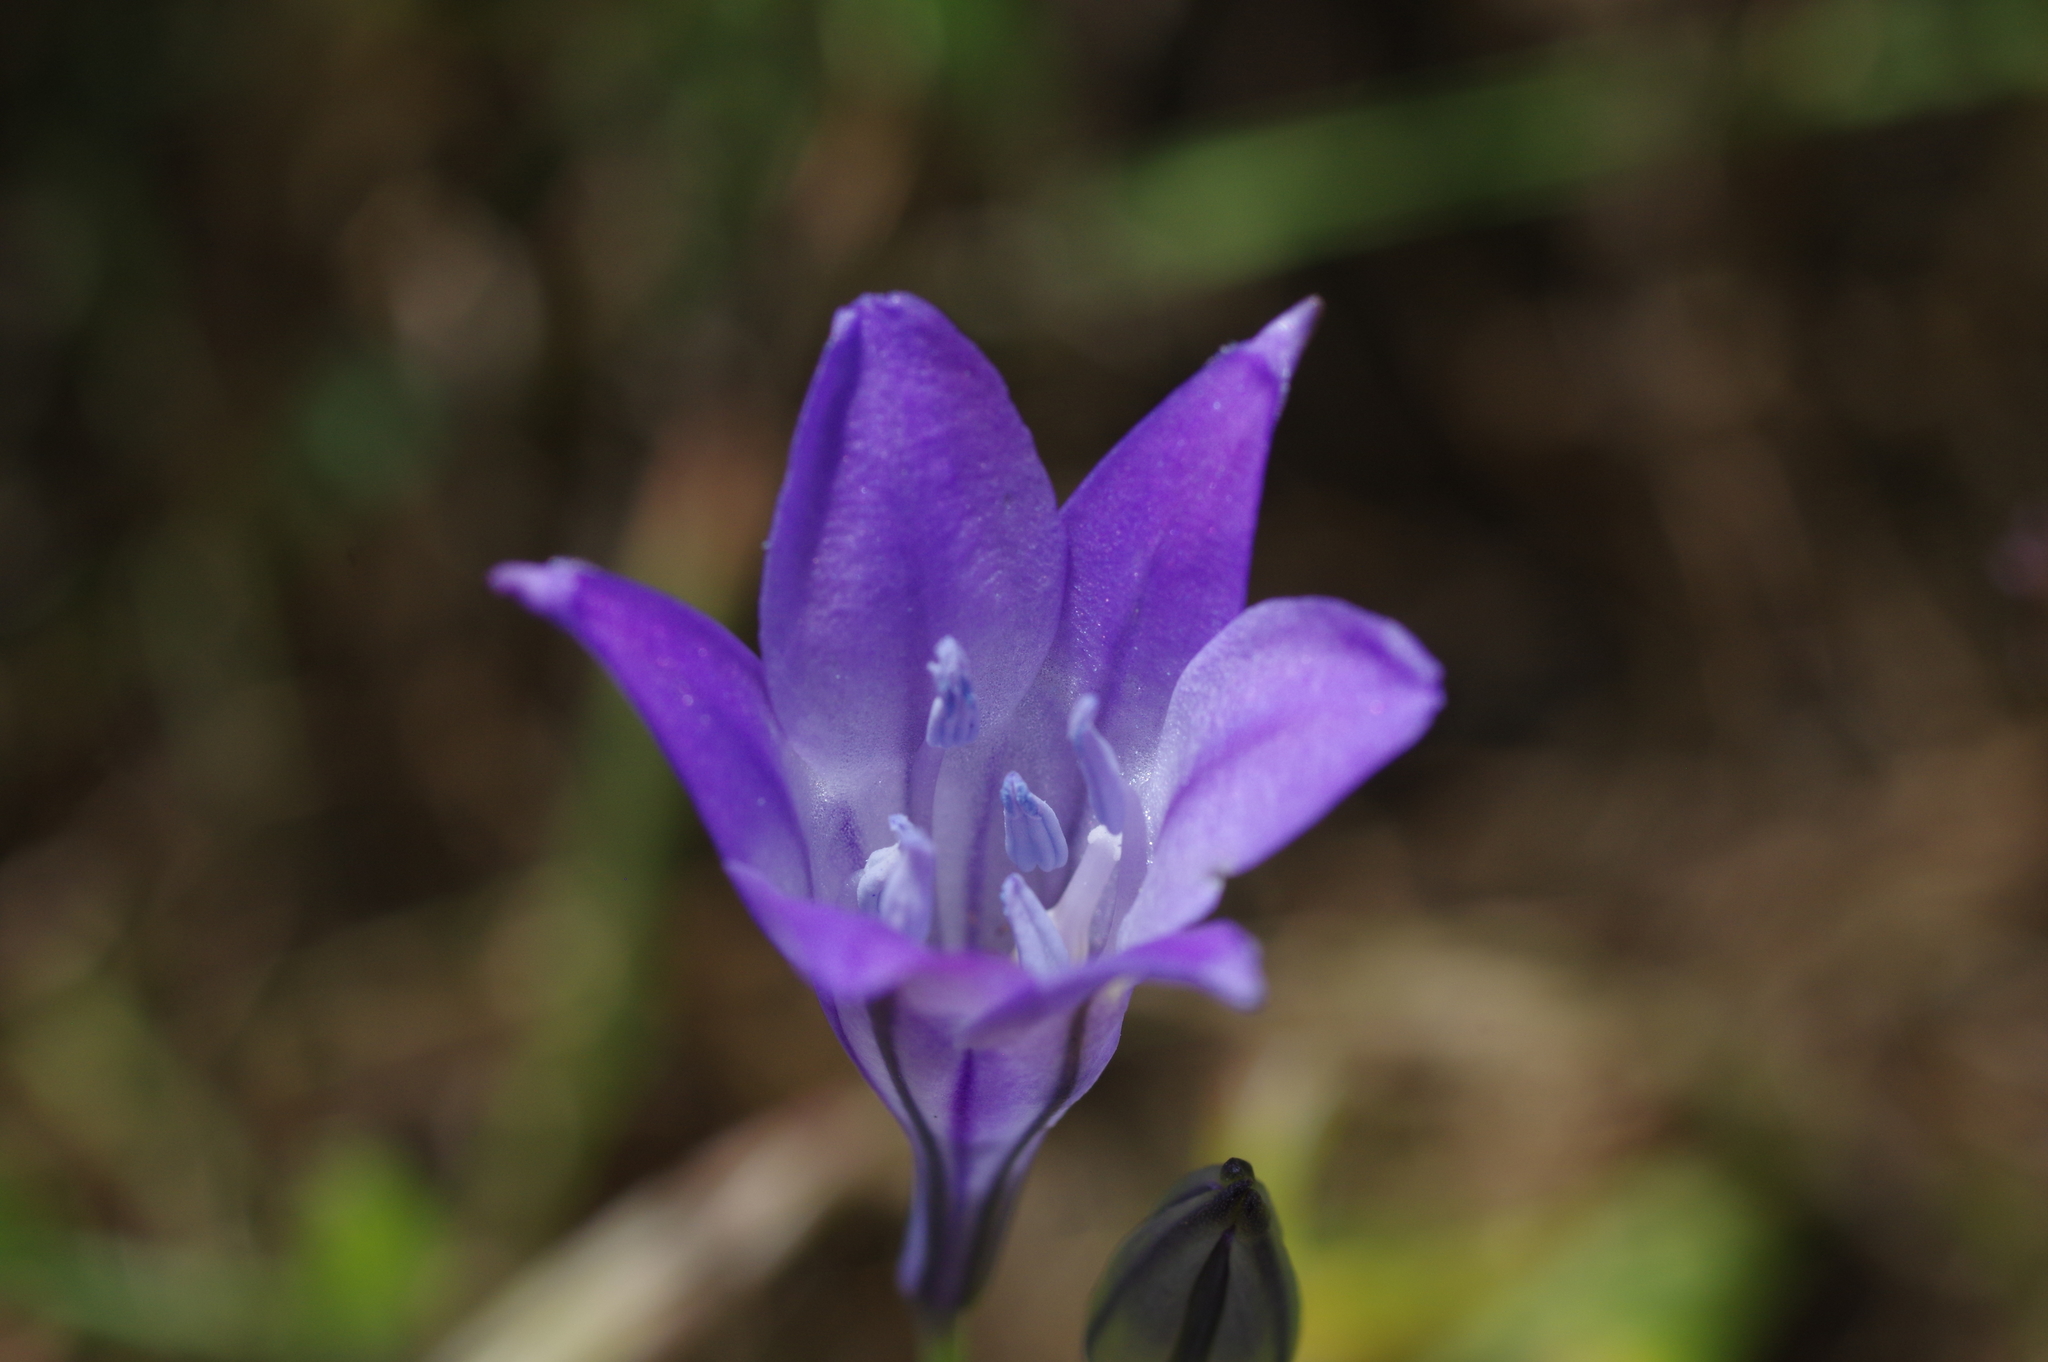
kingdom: Plantae
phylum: Tracheophyta
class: Liliopsida
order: Asparagales
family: Asparagaceae
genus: Triteleia
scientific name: Triteleia laxa
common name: Triplet-lily
